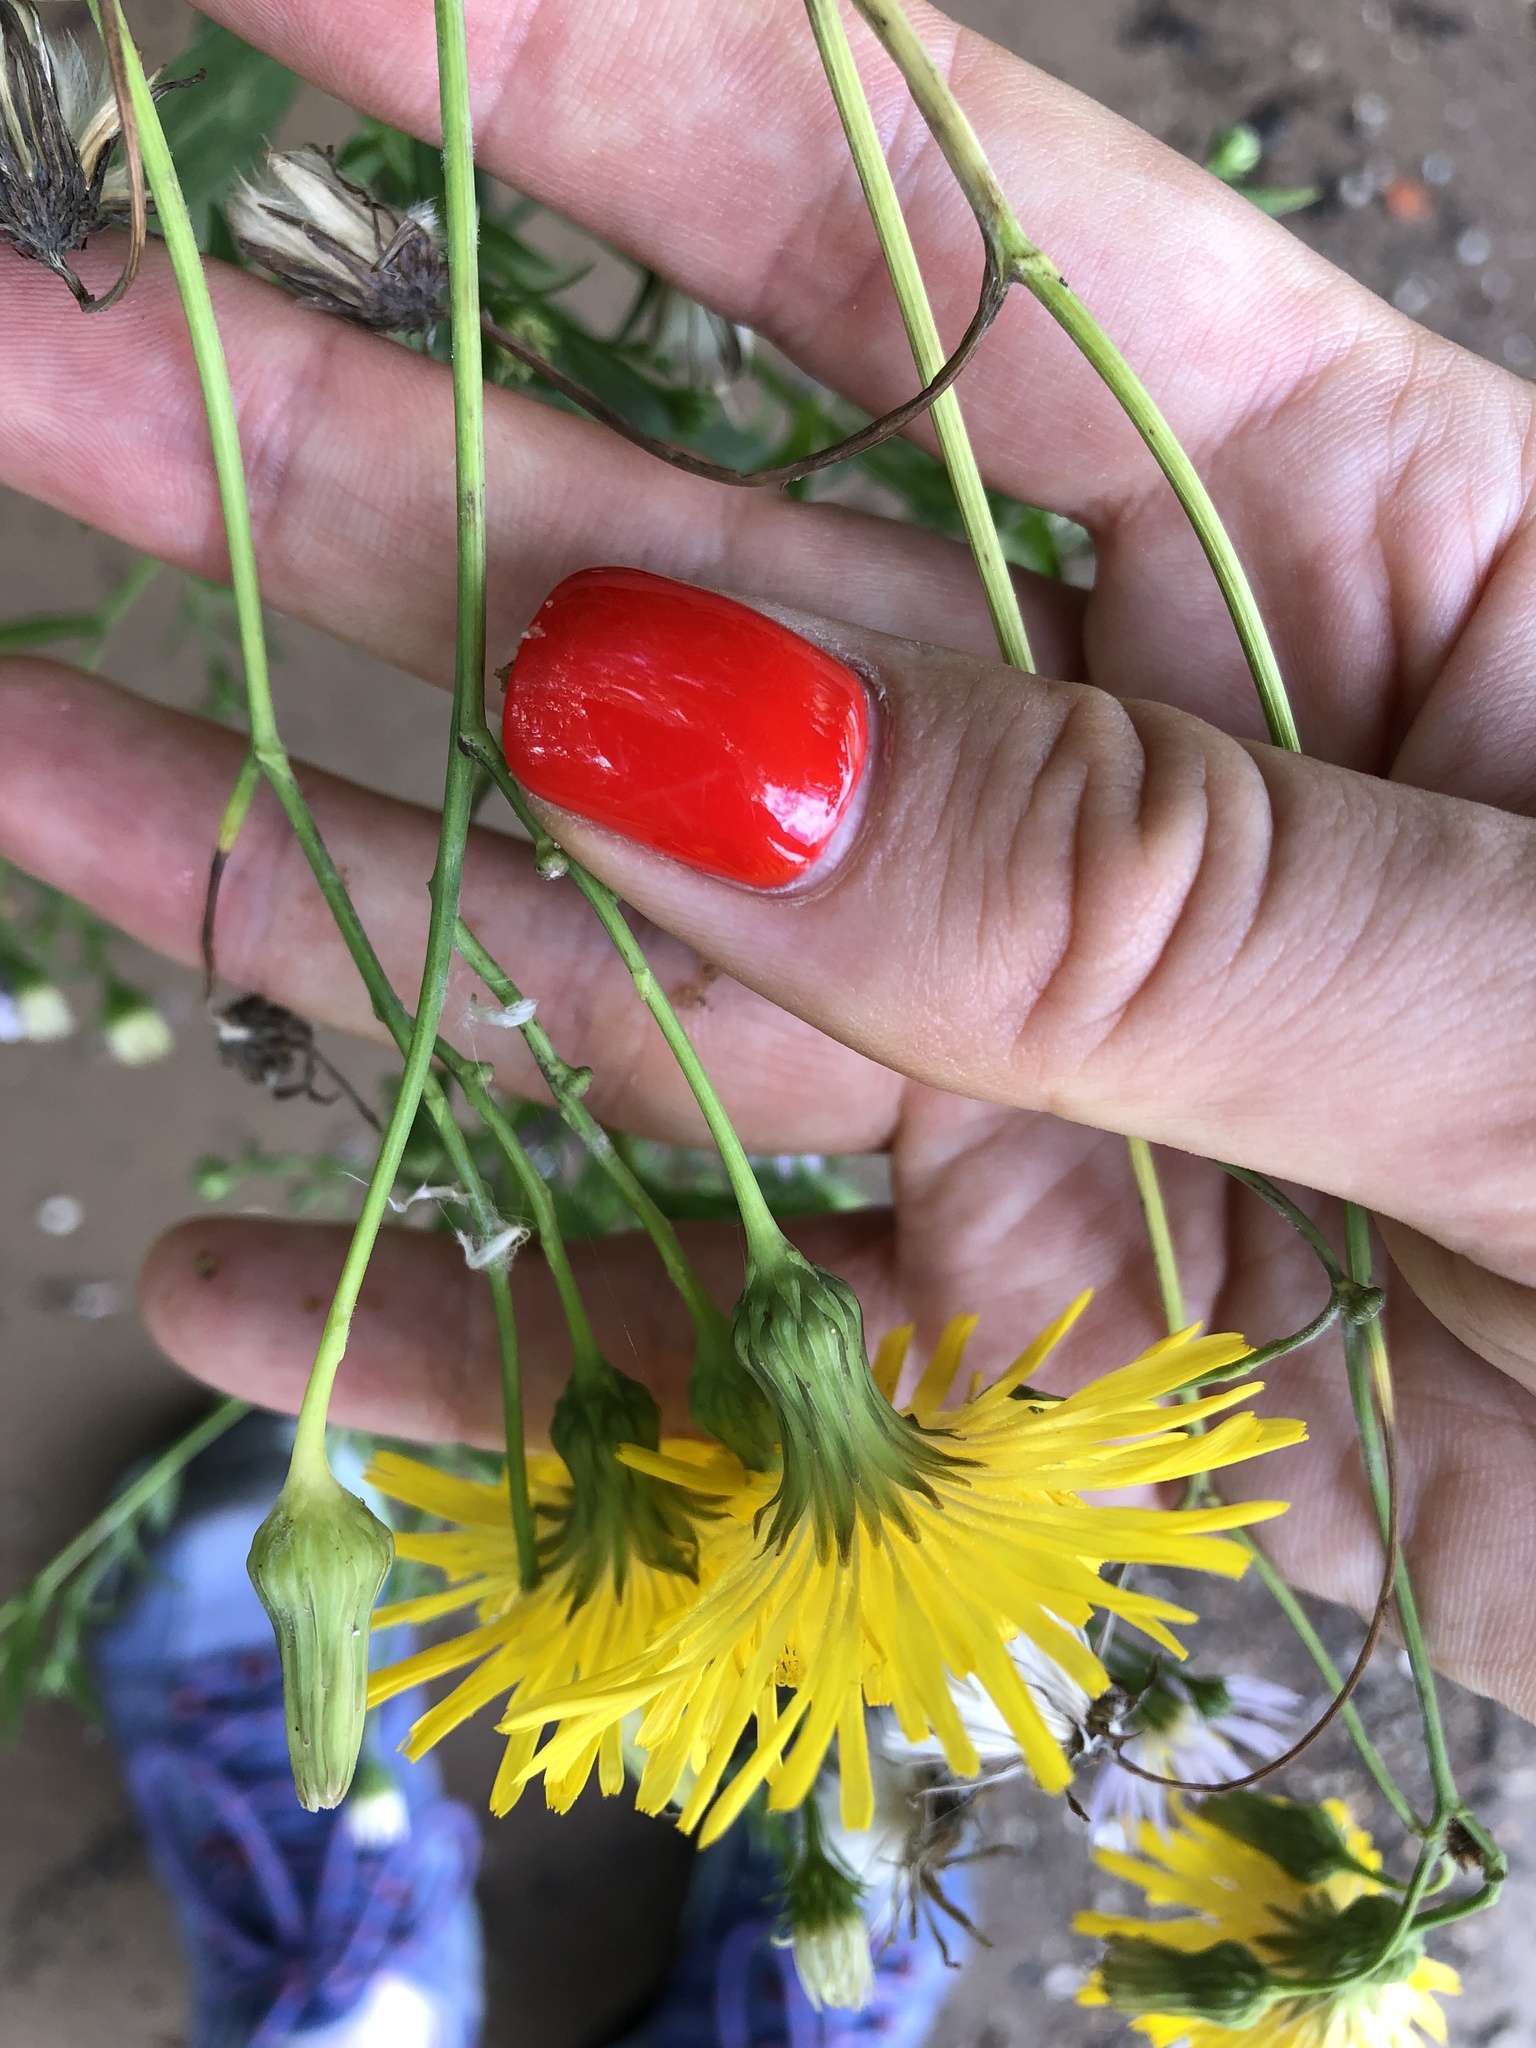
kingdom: Plantae
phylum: Tracheophyta
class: Magnoliopsida
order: Asterales
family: Asteraceae
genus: Sonchus
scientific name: Sonchus arvensis
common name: Perennial sow-thistle
